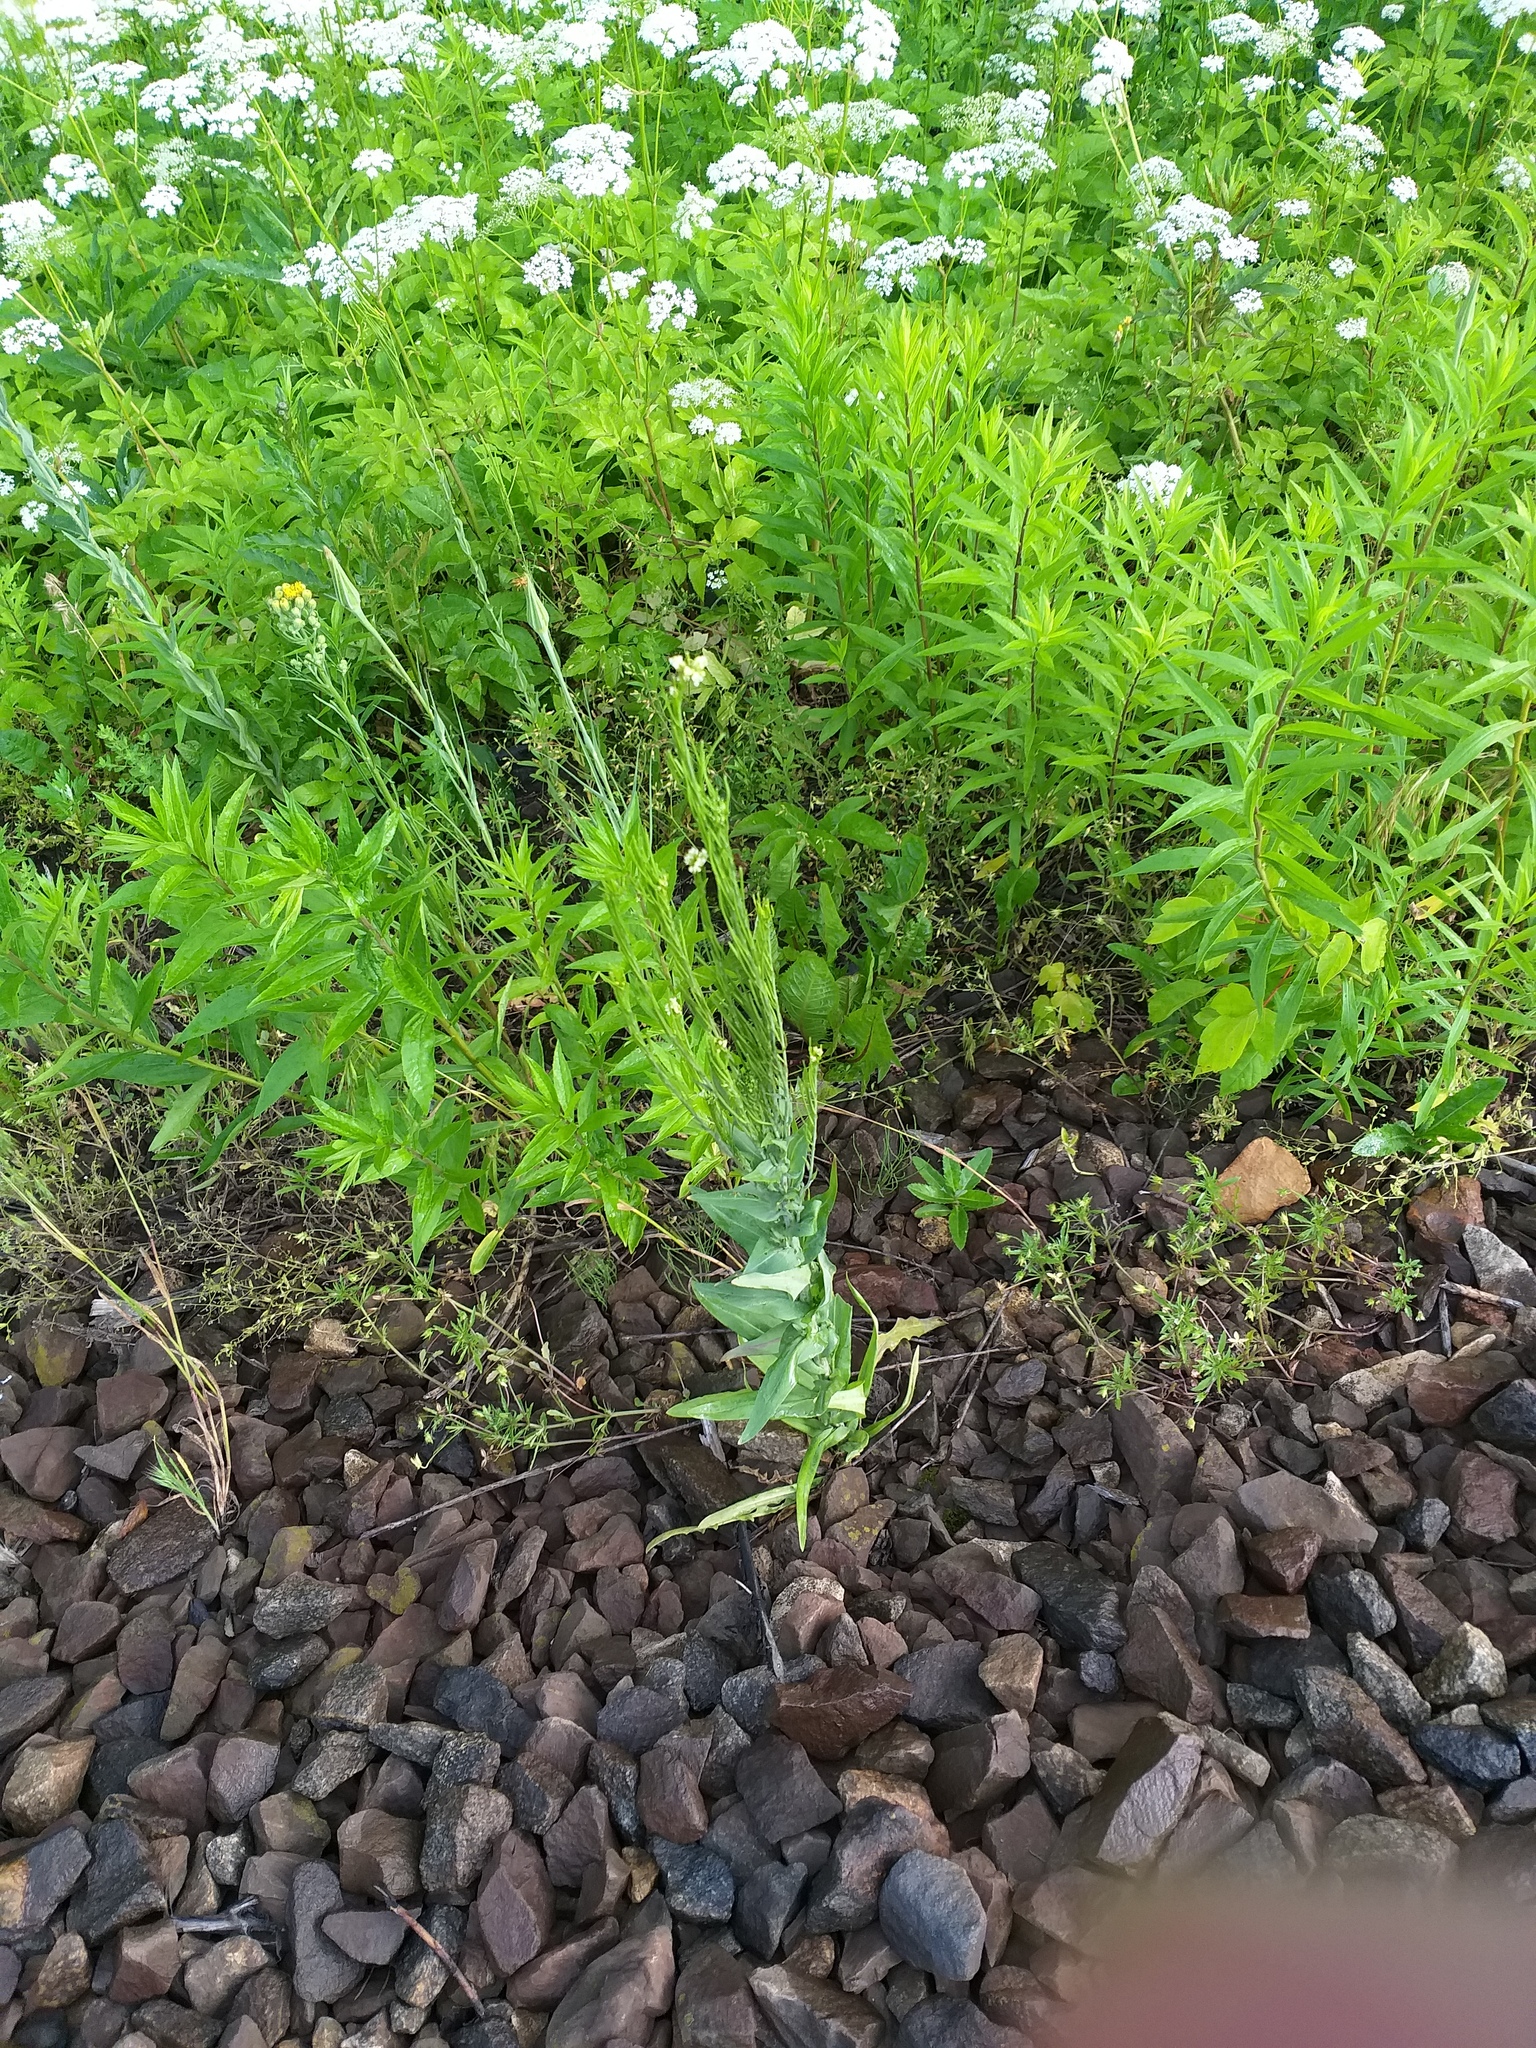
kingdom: Plantae
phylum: Tracheophyta
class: Magnoliopsida
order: Brassicales
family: Brassicaceae
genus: Turritis
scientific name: Turritis glabra
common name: Tower rockcress
